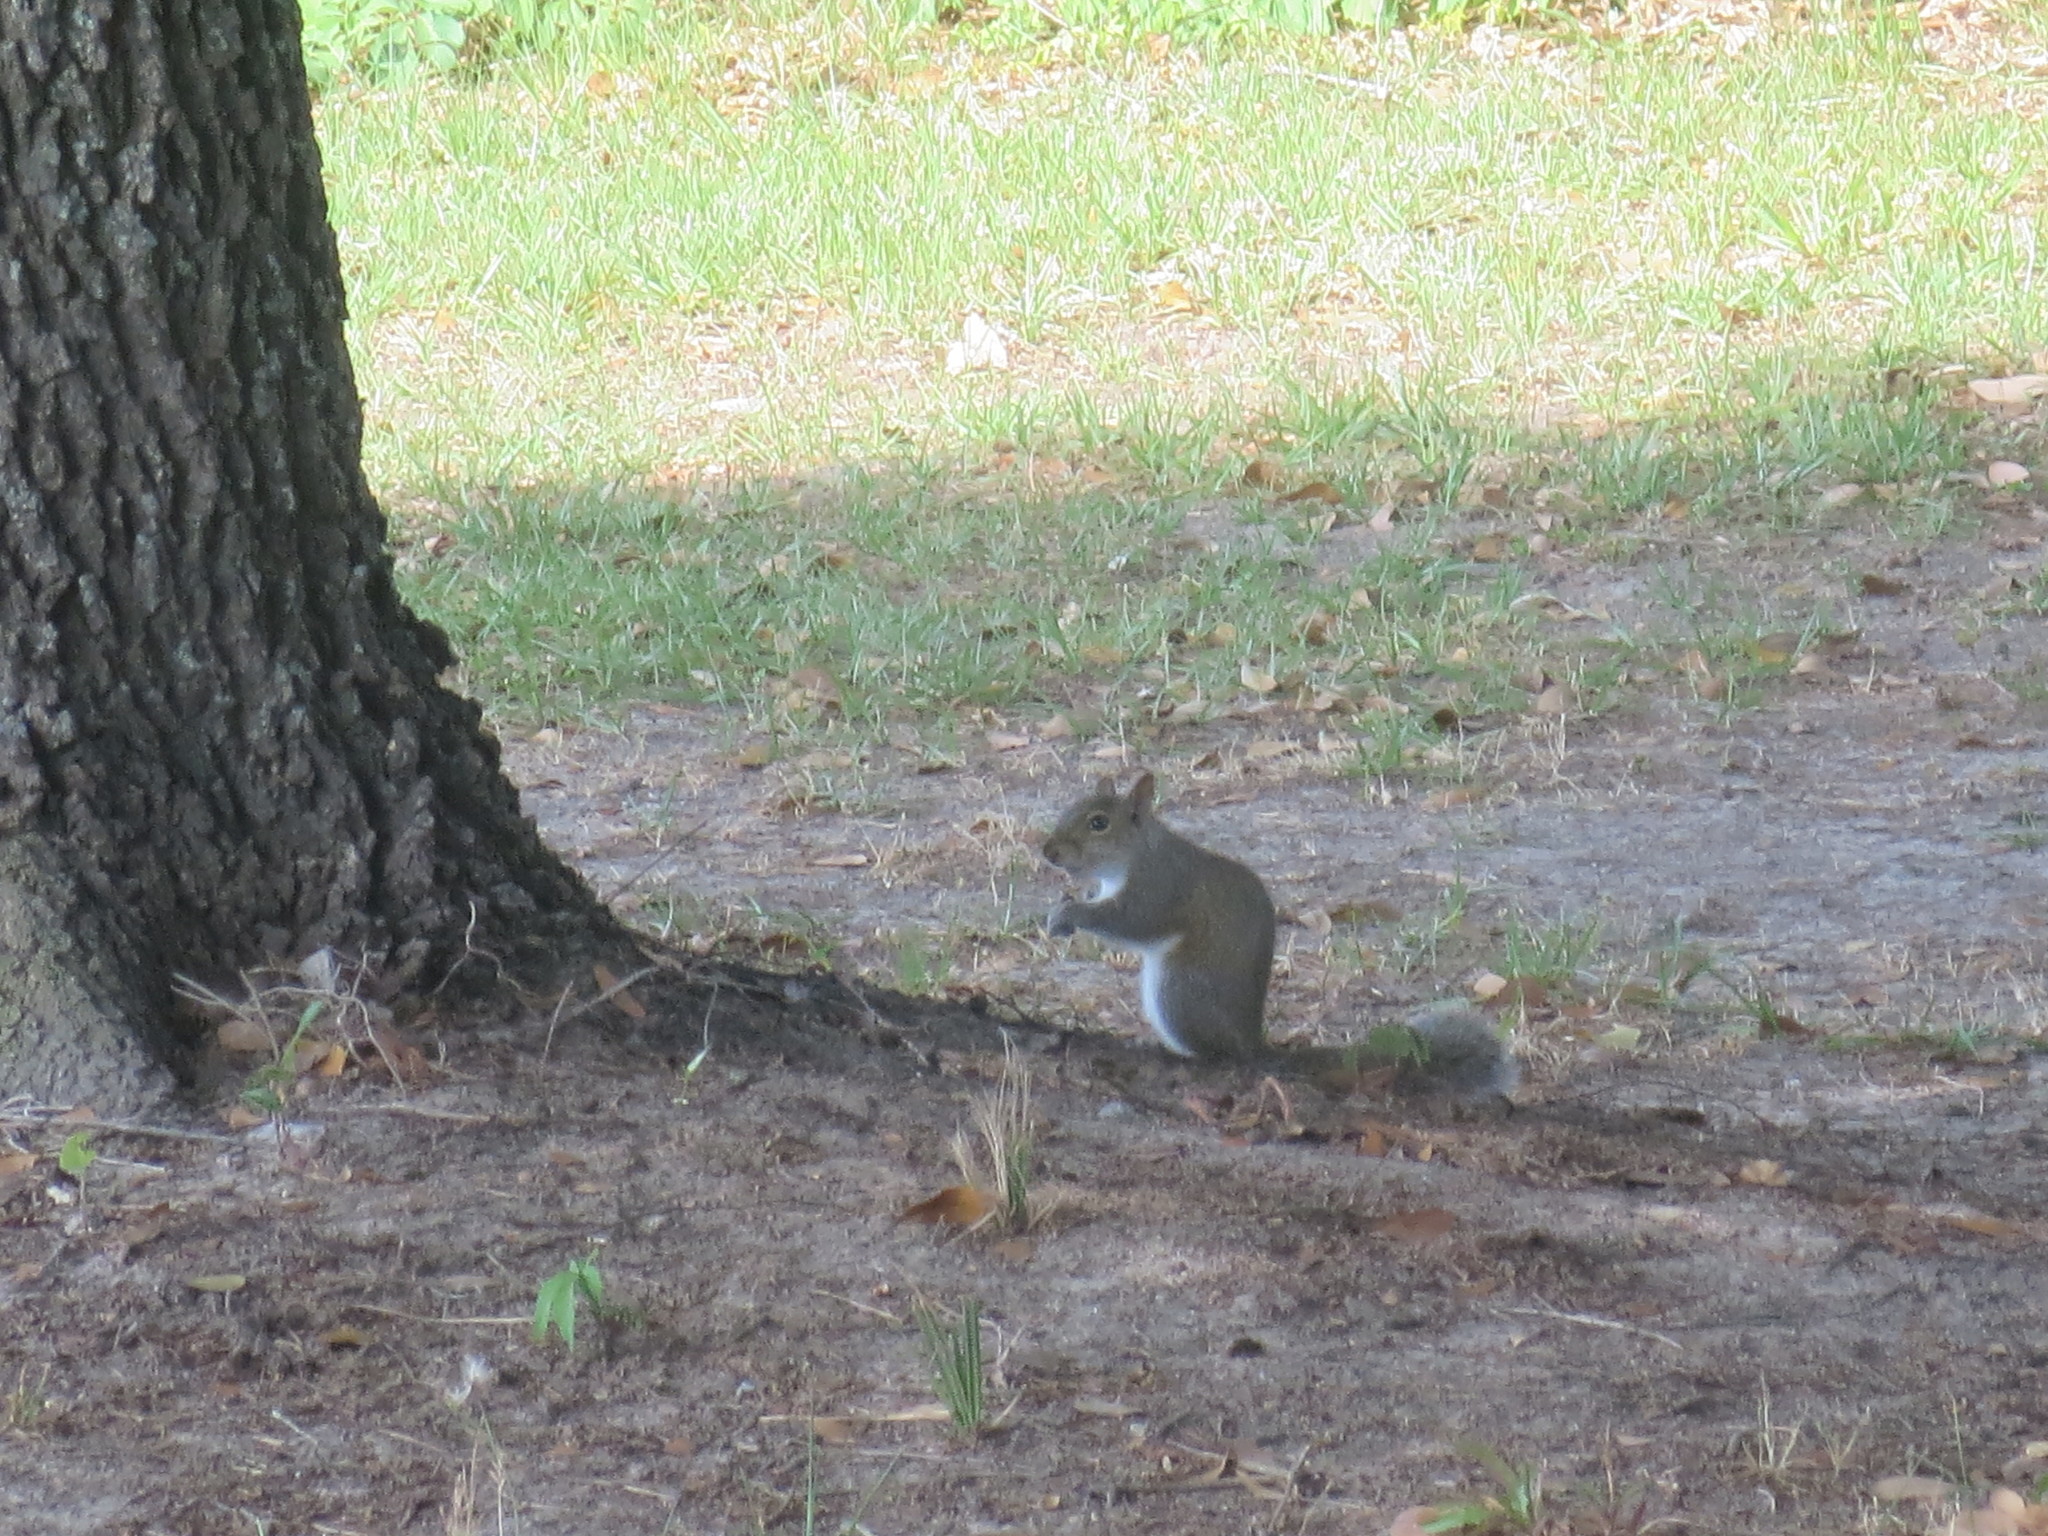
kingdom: Animalia
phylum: Chordata
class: Mammalia
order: Rodentia
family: Sciuridae
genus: Sciurus
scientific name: Sciurus carolinensis
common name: Eastern gray squirrel
